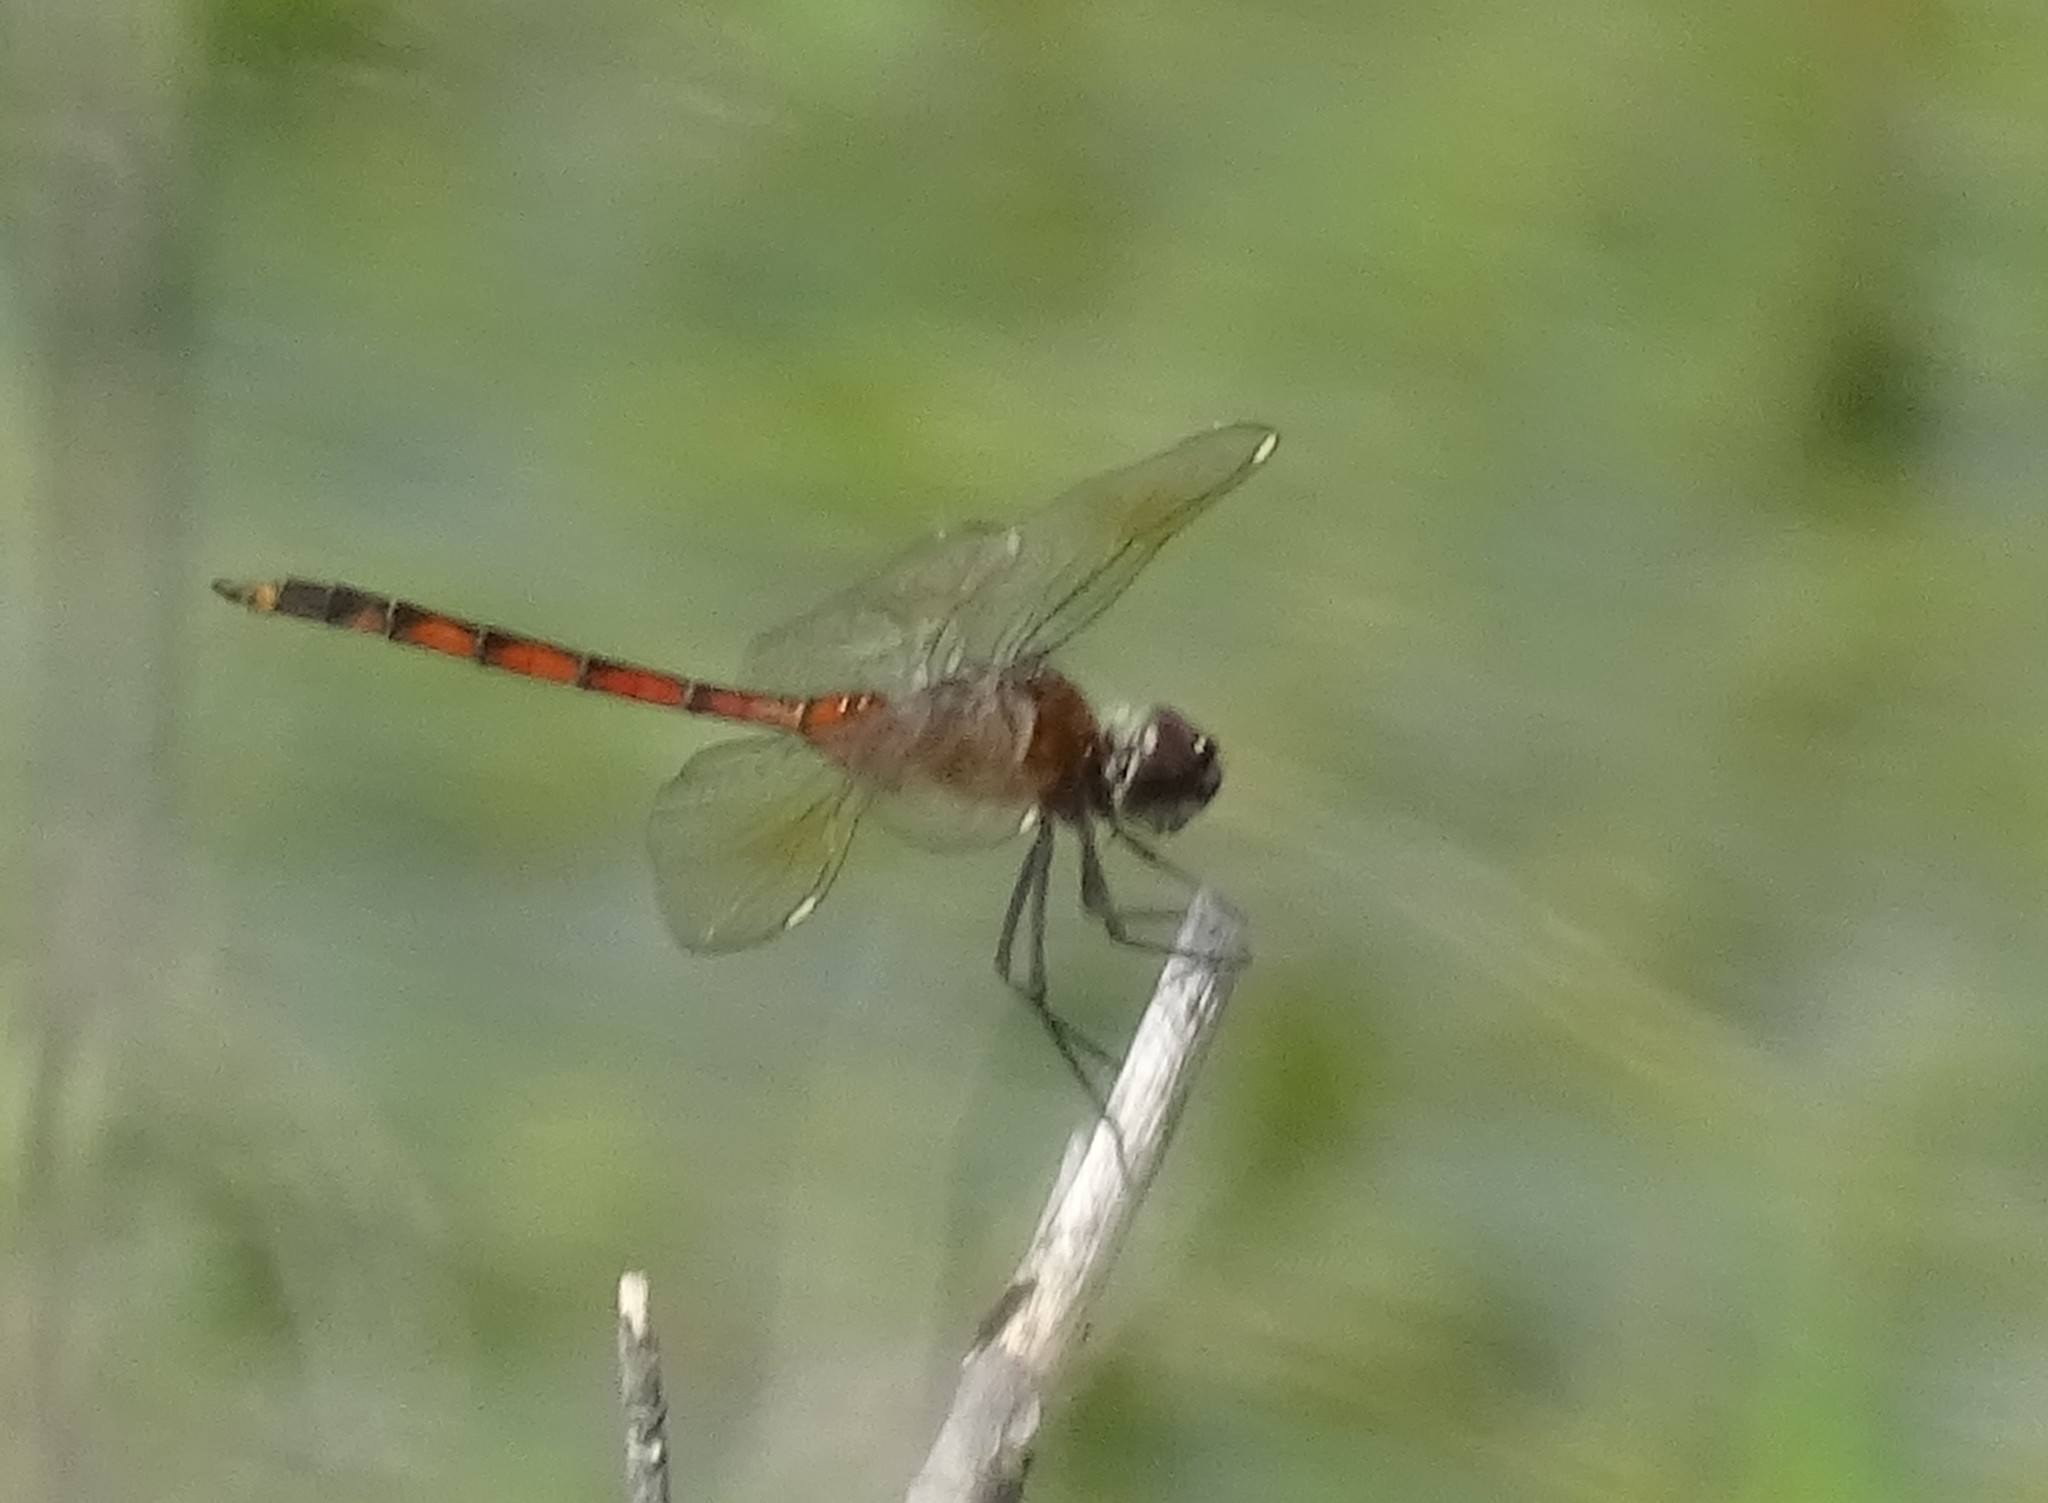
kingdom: Animalia
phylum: Arthropoda
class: Insecta
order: Odonata
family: Libellulidae
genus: Brachymesia
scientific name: Brachymesia gravida
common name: Four-spotted pennant
